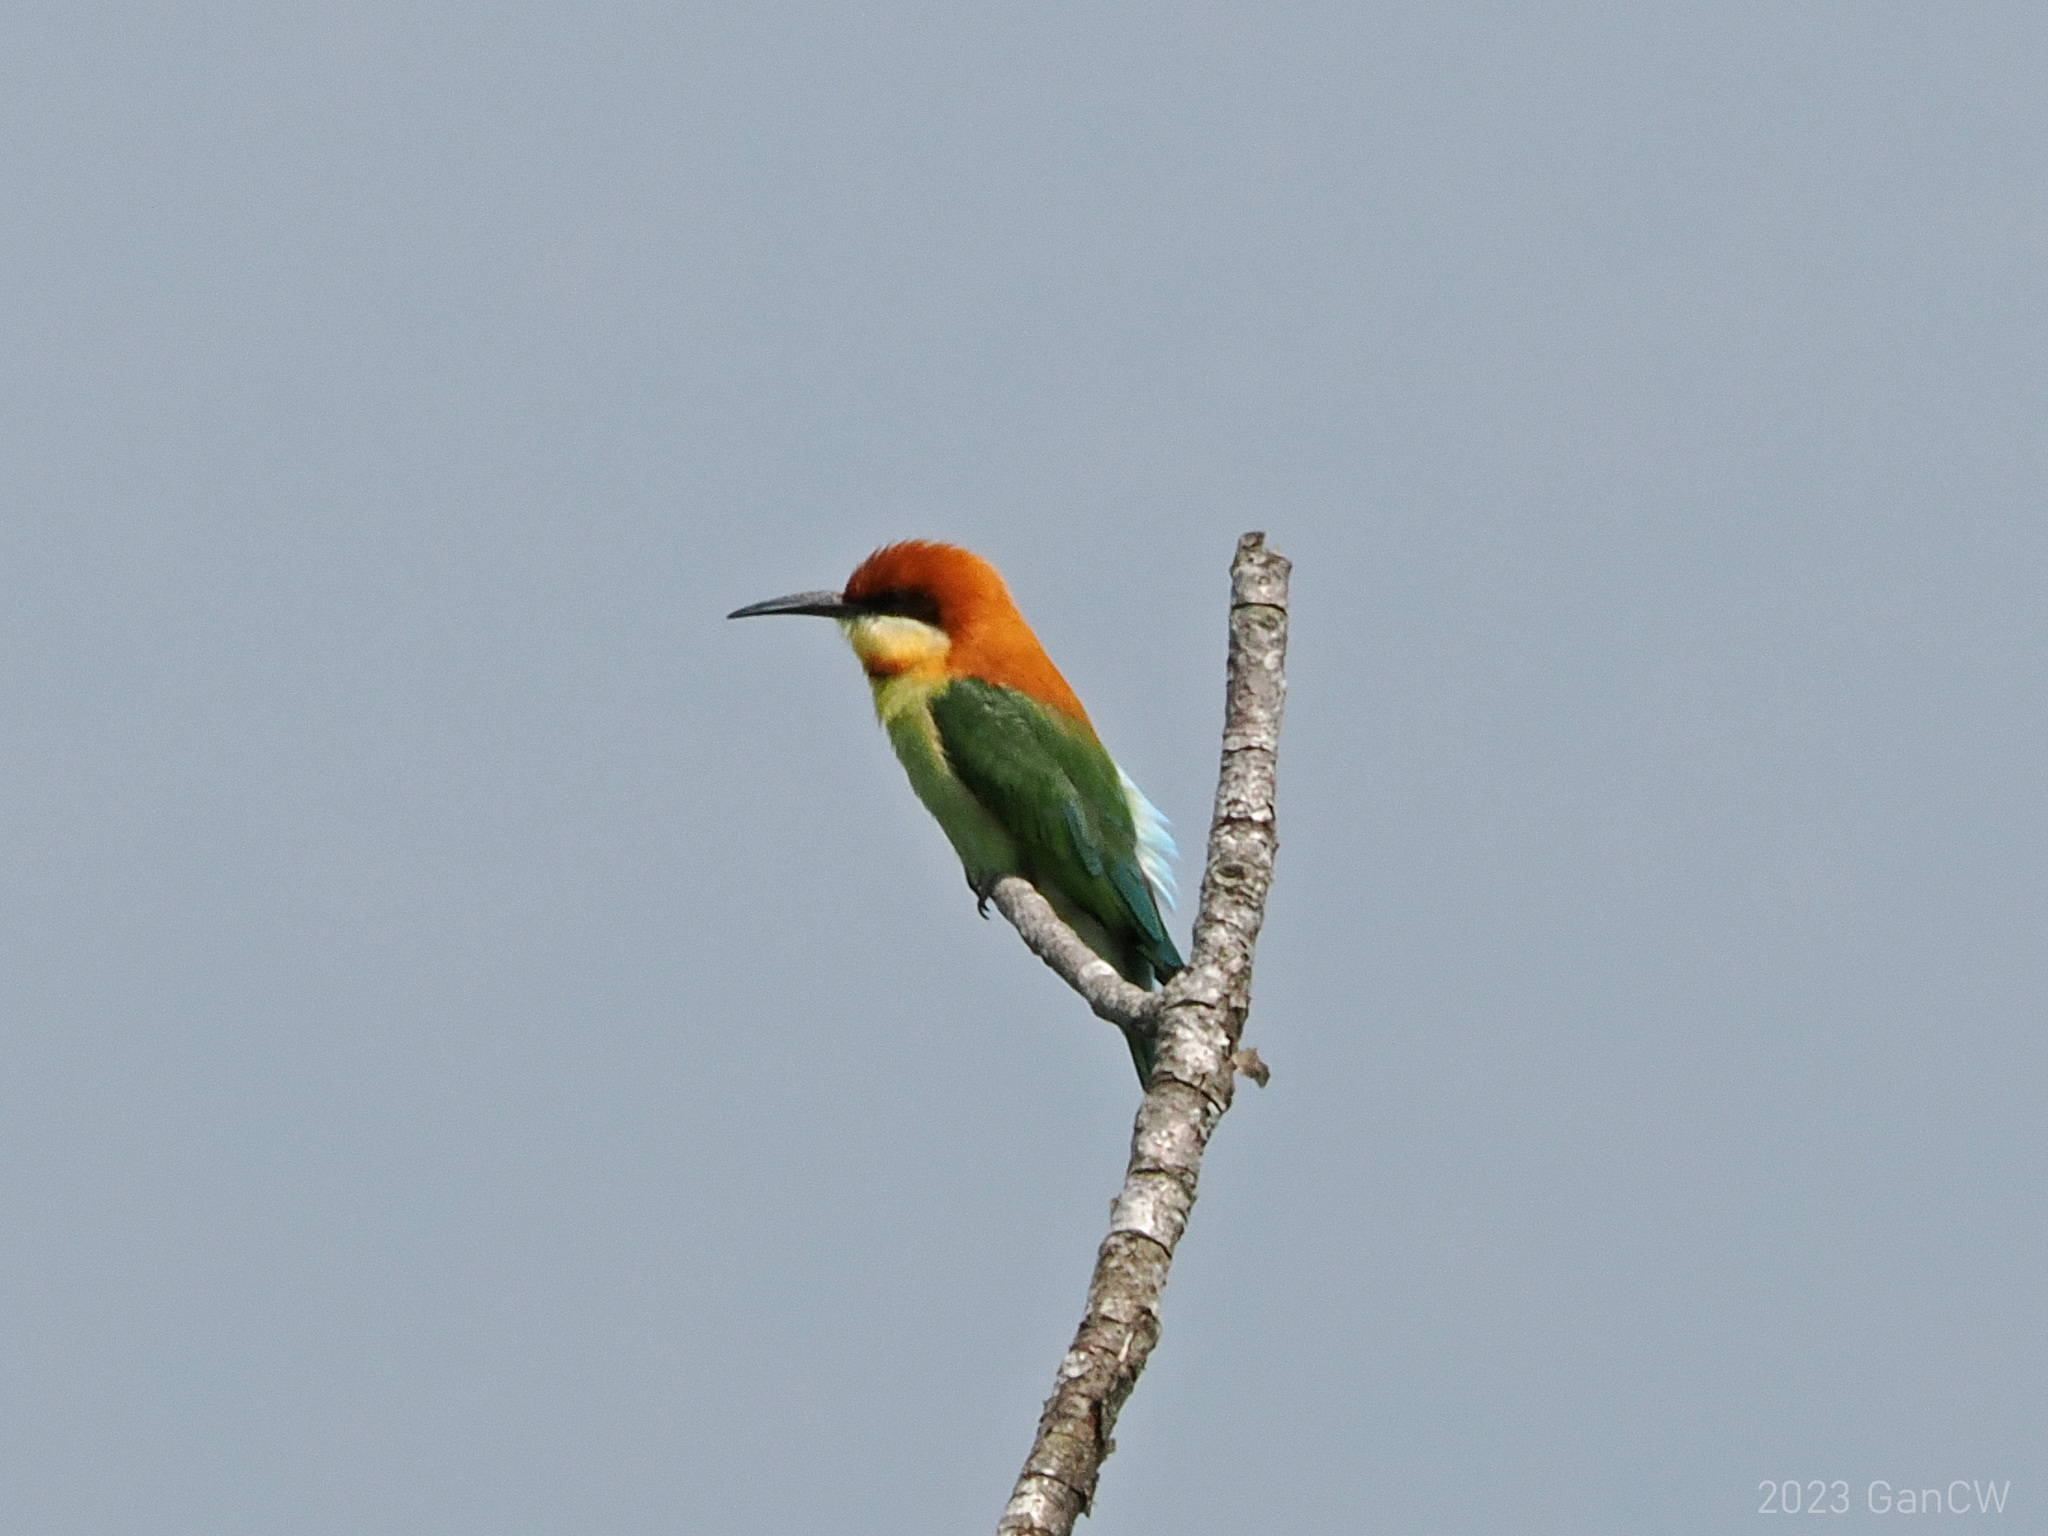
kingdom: Animalia
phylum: Chordata
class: Aves
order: Coraciiformes
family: Meropidae
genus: Merops
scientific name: Merops leschenaulti
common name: Chestnut-headed bee-eater
